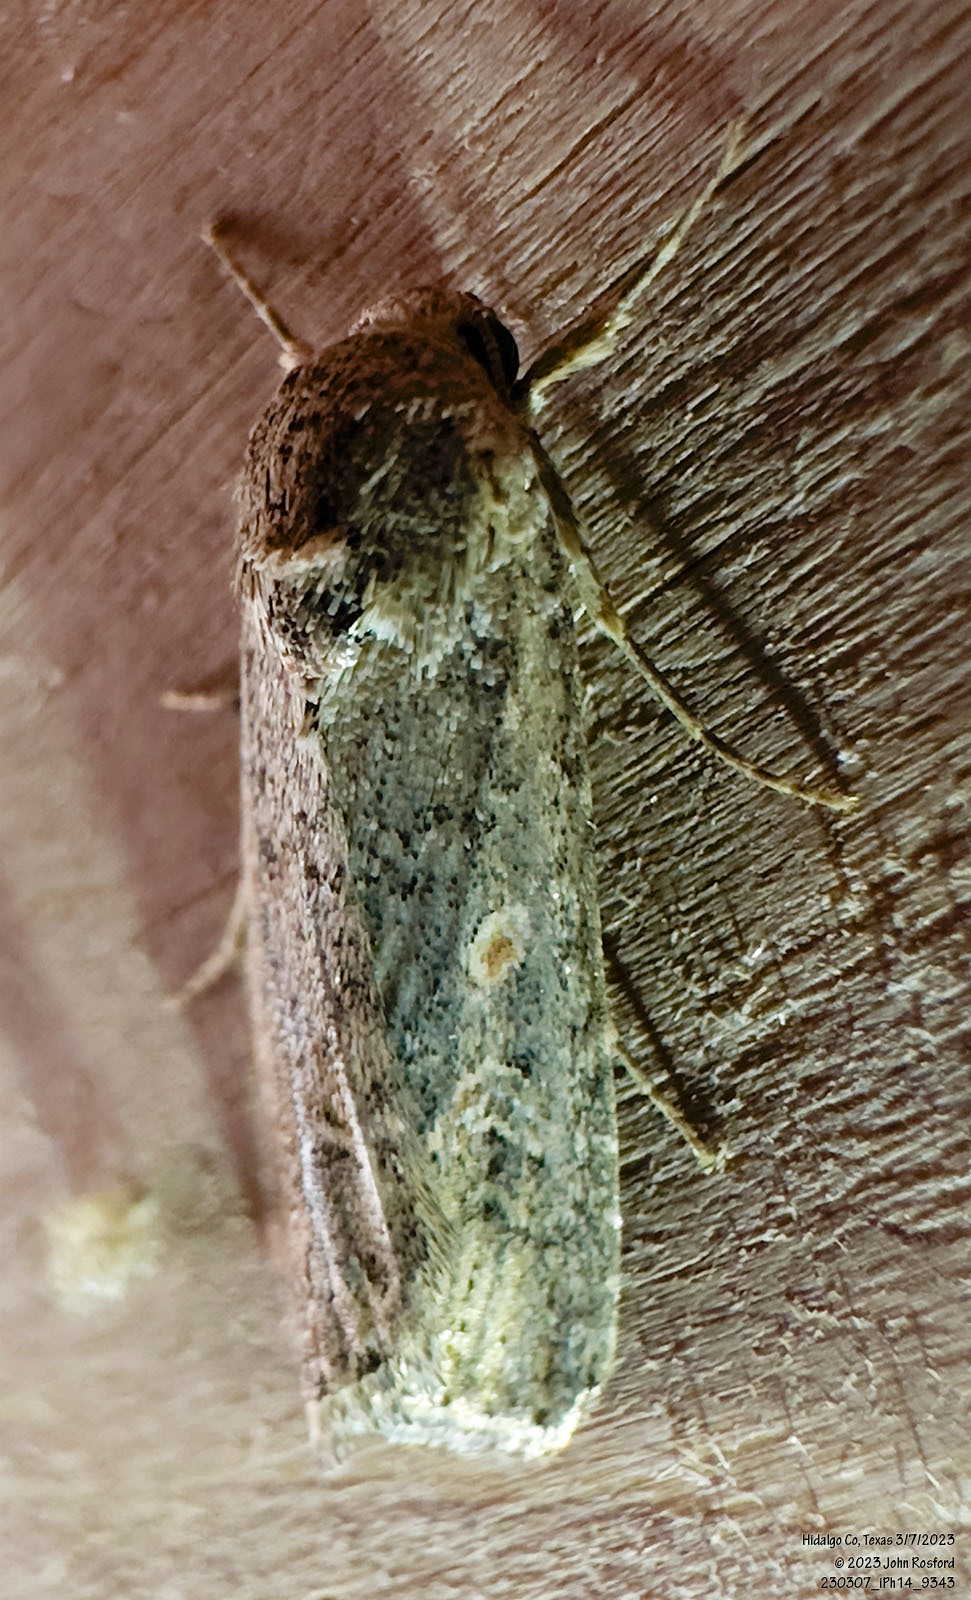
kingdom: Animalia
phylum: Arthropoda
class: Insecta
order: Lepidoptera
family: Noctuidae
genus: Spodoptera
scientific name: Spodoptera exigua
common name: Beet armyworm
